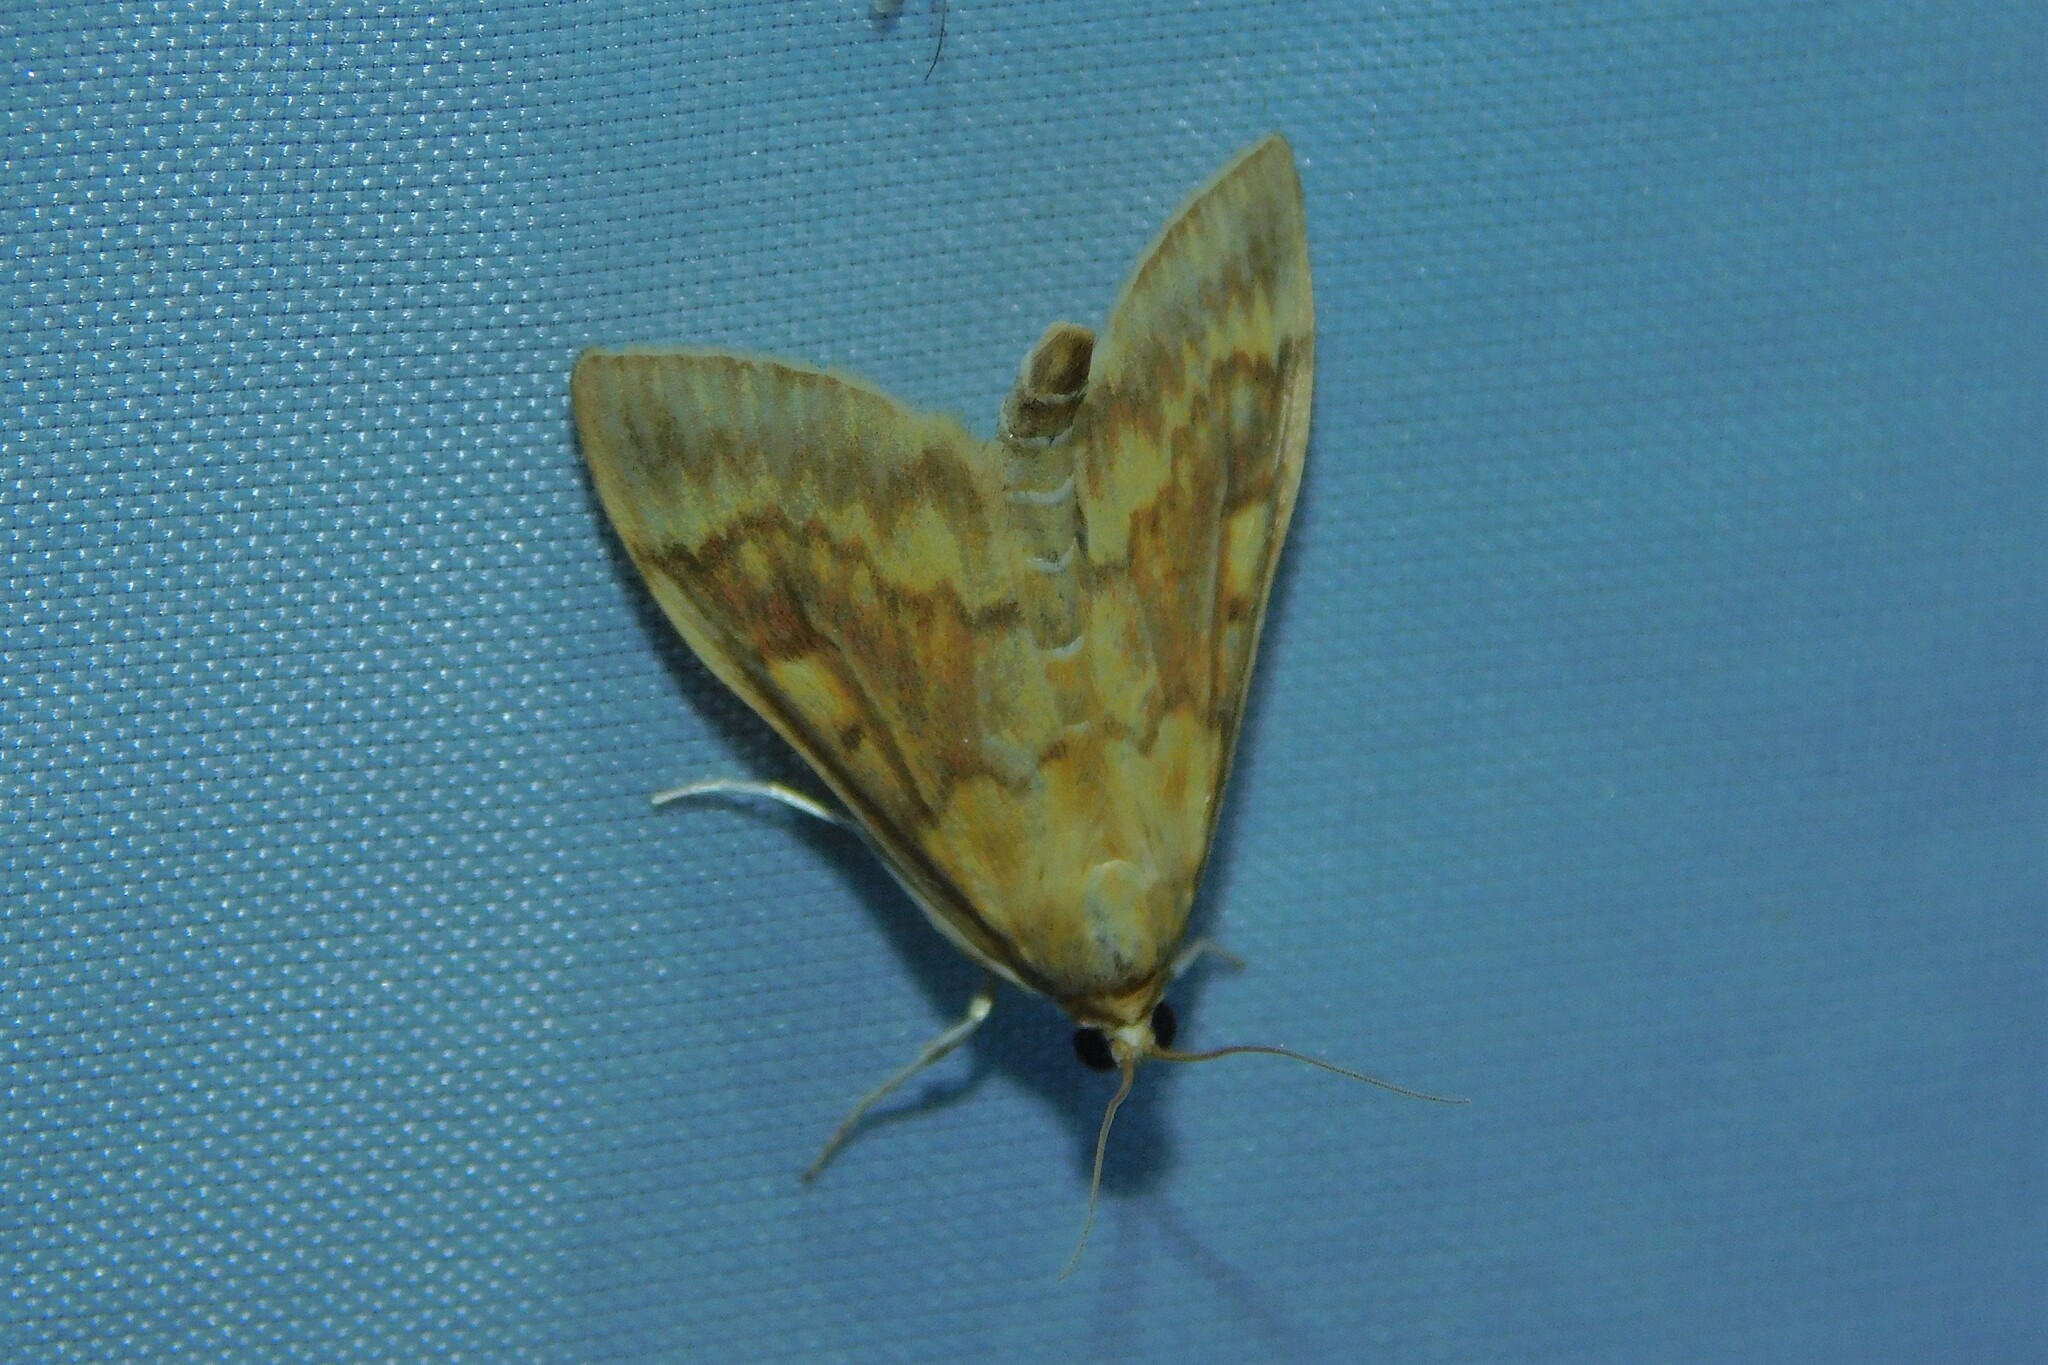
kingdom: Animalia
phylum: Arthropoda
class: Insecta
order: Lepidoptera
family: Crambidae
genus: Ostrinia
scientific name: Ostrinia nubilalis
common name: European corn borer
